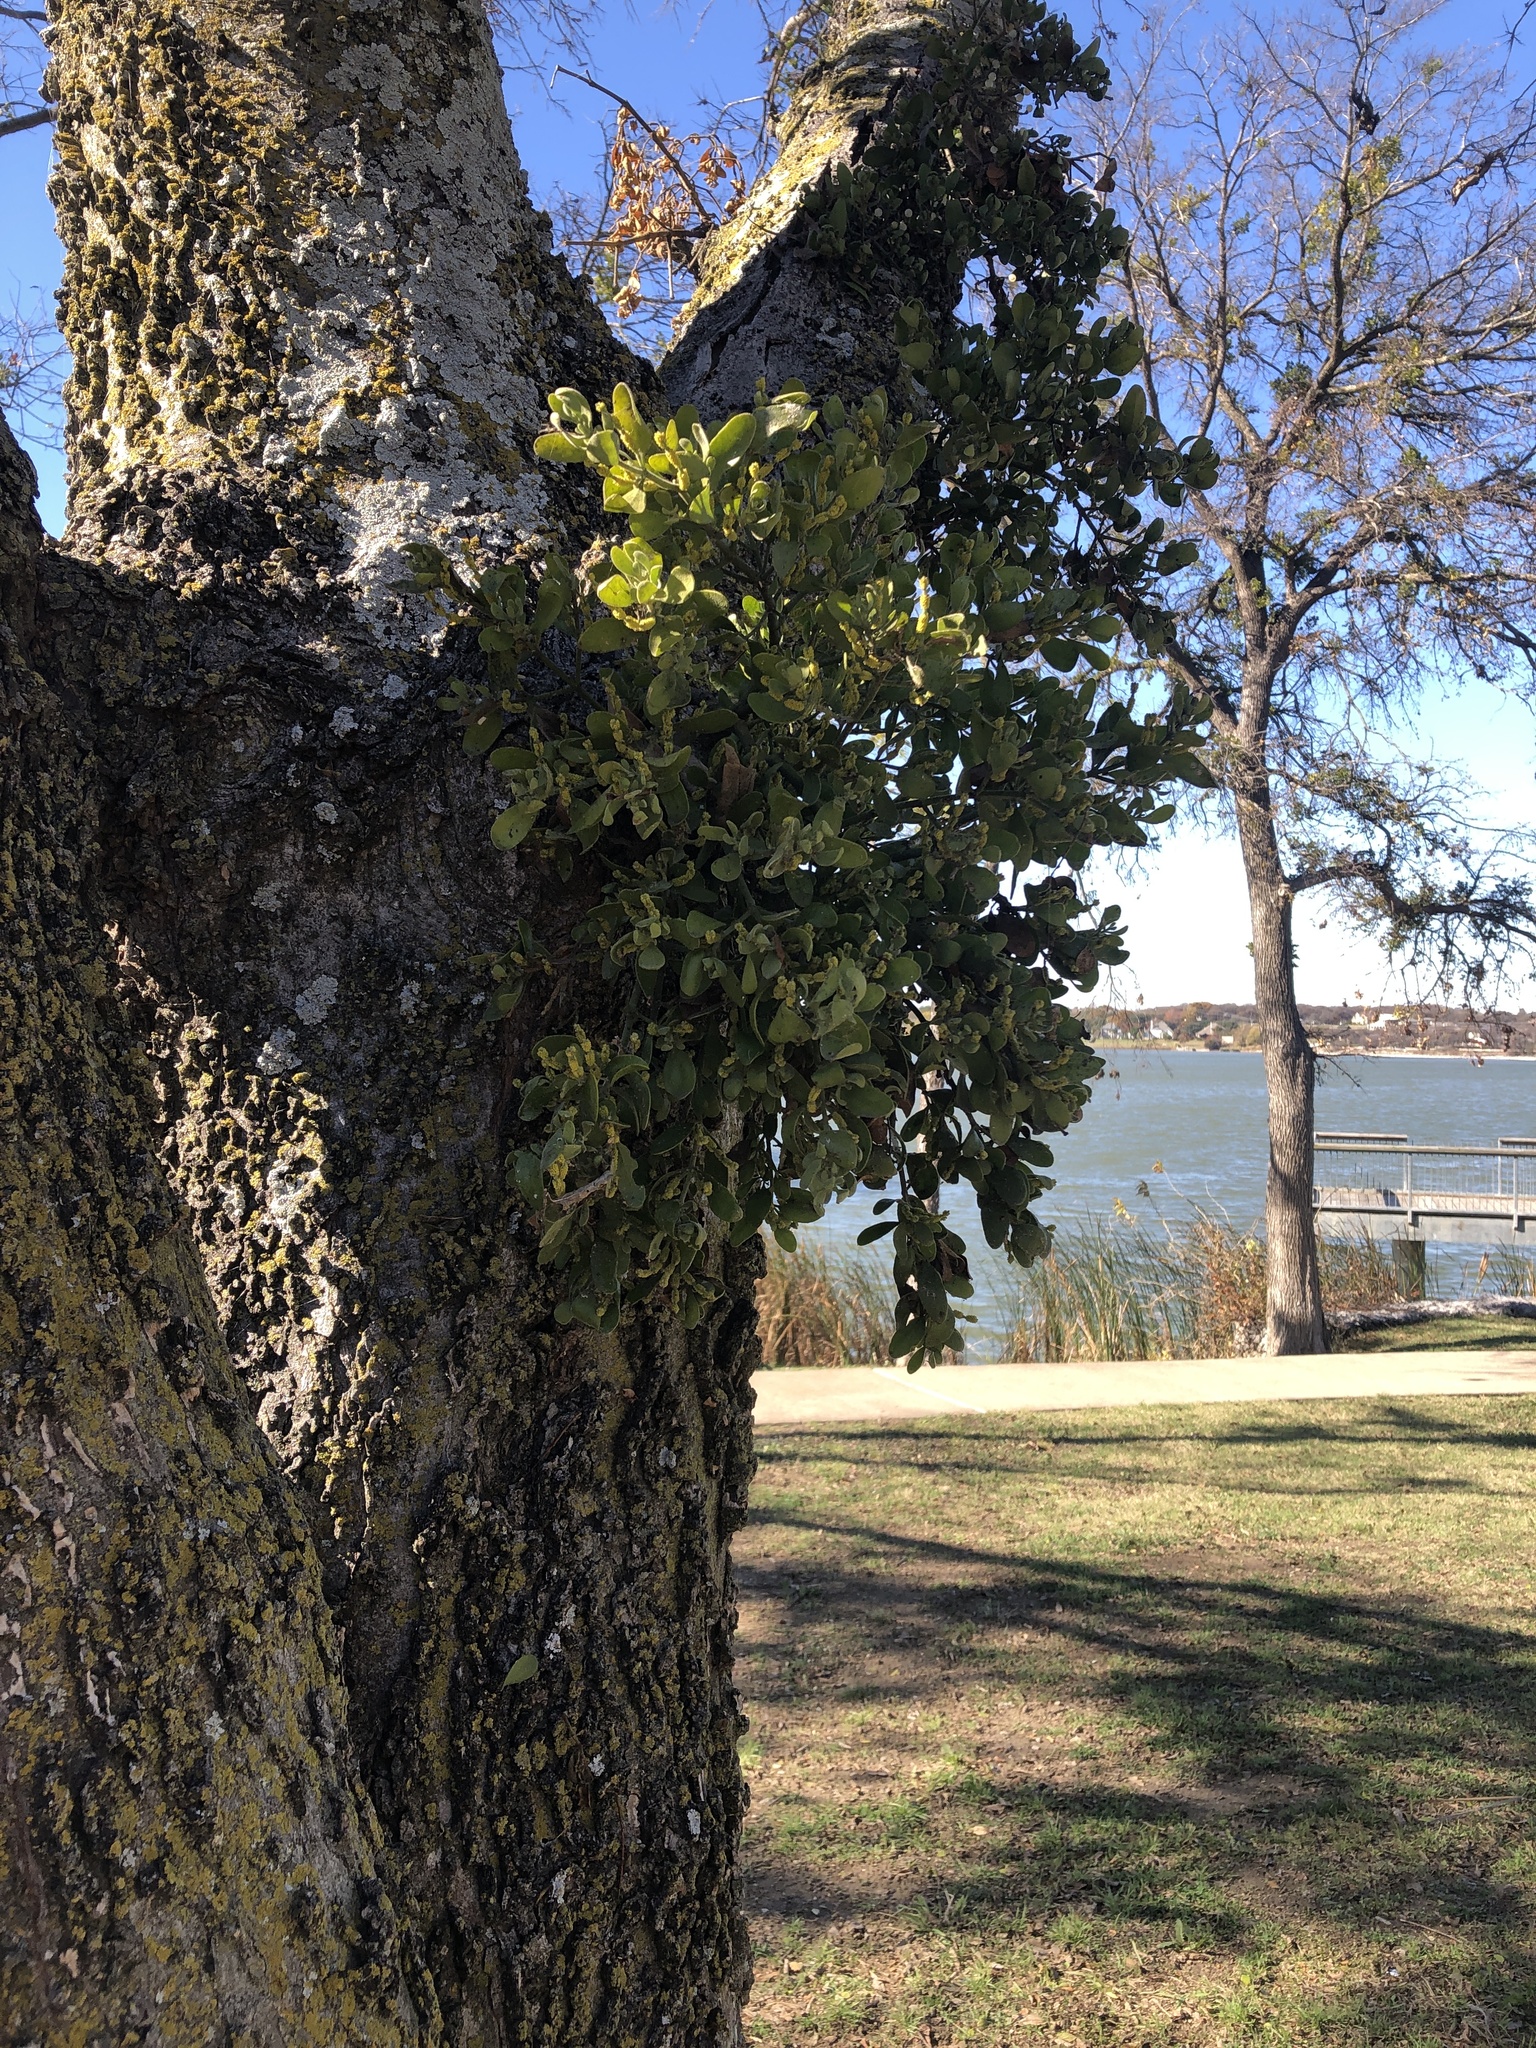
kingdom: Plantae
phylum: Tracheophyta
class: Magnoliopsida
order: Santalales
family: Viscaceae
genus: Phoradendron
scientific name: Phoradendron leucarpum
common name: Pacific mistletoe
